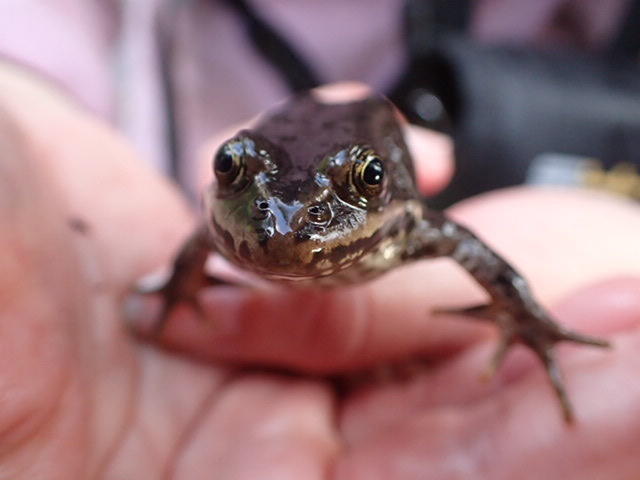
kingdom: Animalia
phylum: Chordata
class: Amphibia
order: Anura
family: Ranidae
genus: Rana
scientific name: Rana luteiventris
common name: Columbia spotted frog
